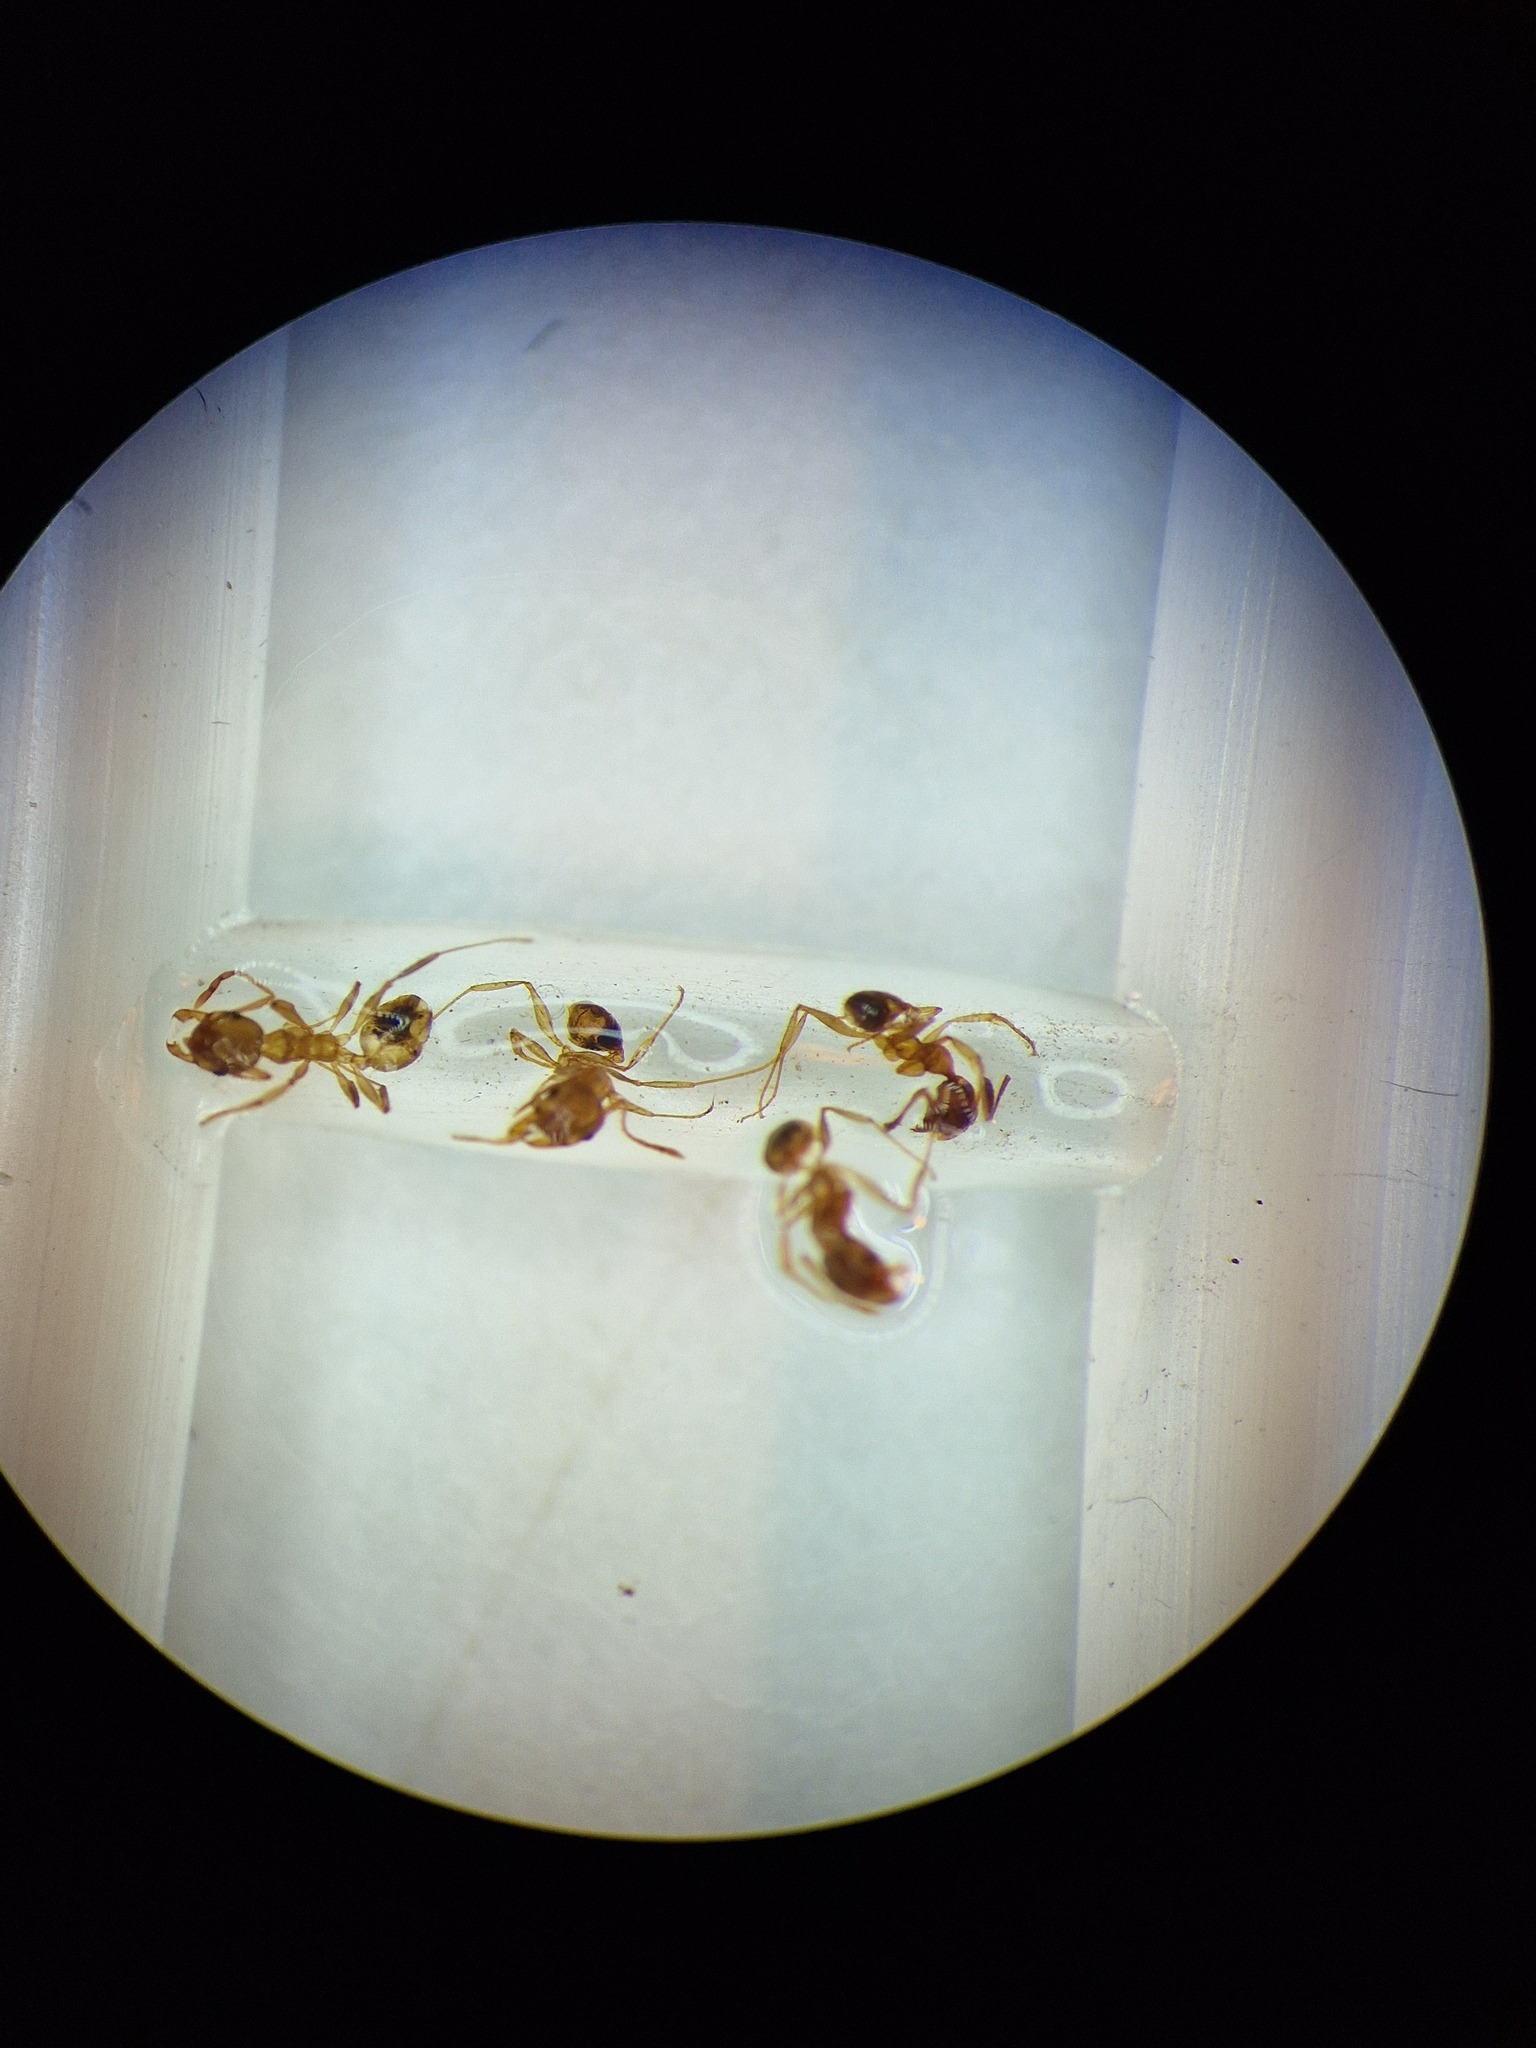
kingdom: Animalia
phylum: Arthropoda
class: Insecta
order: Hymenoptera
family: Formicidae
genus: Pheidole
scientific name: Pheidole pallidula
